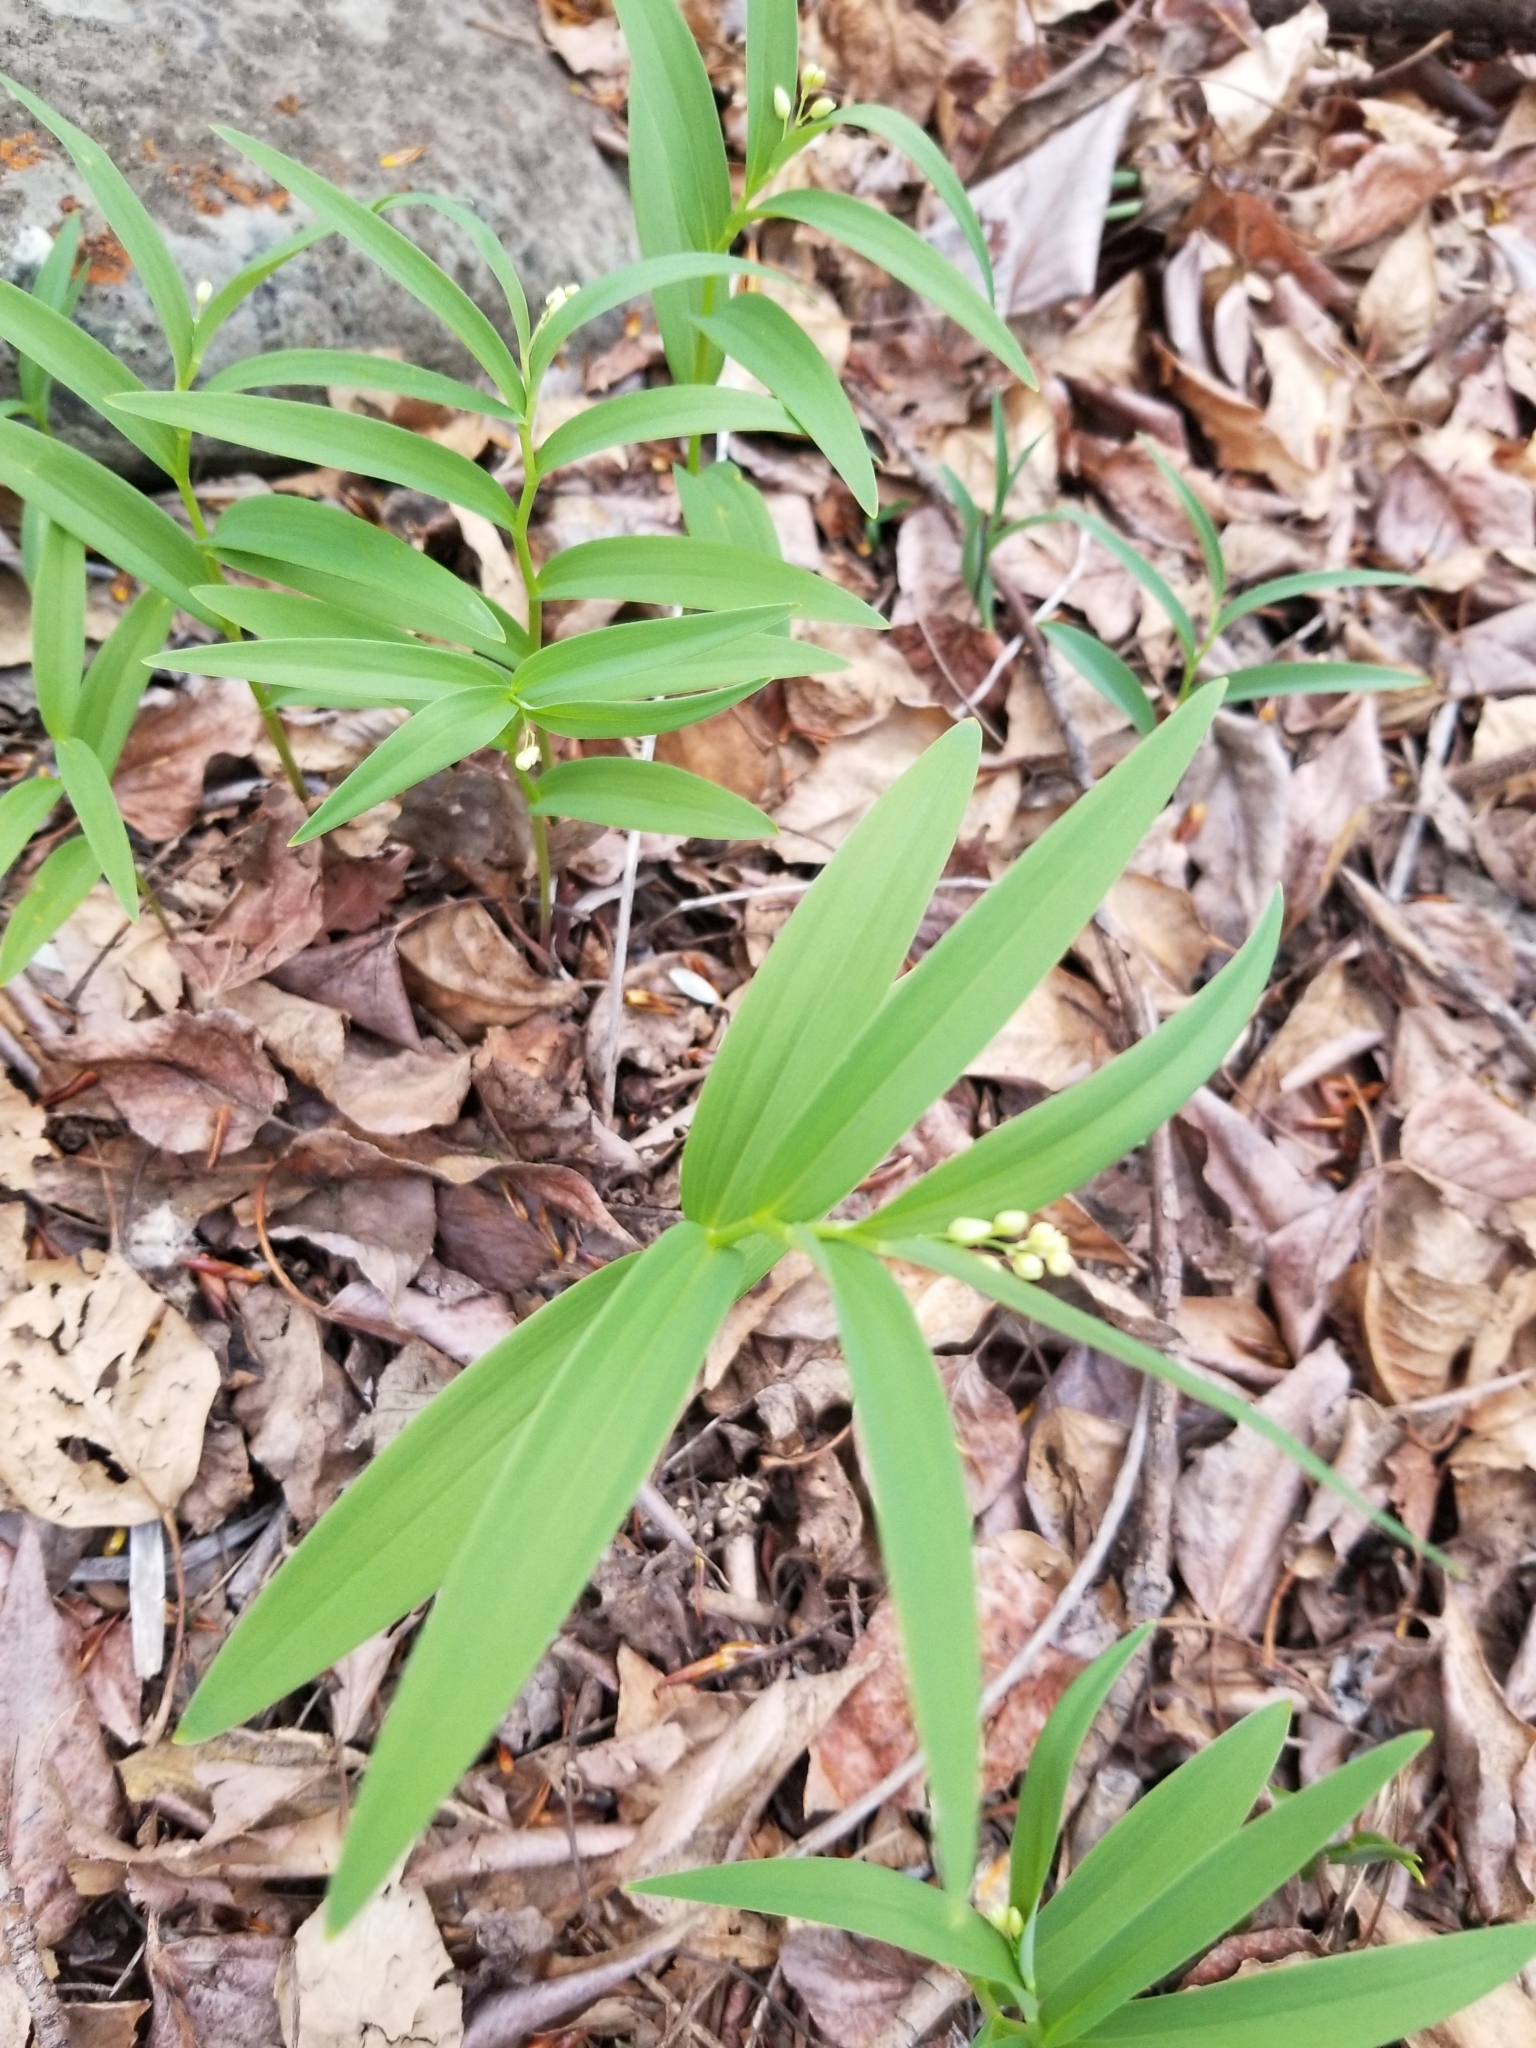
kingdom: Plantae
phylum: Tracheophyta
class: Liliopsida
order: Asparagales
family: Asparagaceae
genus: Maianthemum
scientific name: Maianthemum stellatum
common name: Little false solomon's seal
